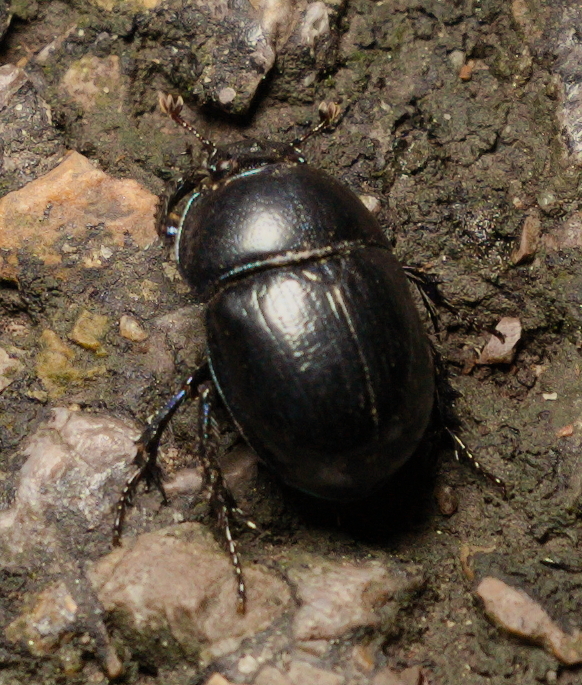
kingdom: Animalia
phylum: Arthropoda
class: Insecta
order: Coleoptera
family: Geotrupidae
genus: Anoplotrupes
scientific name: Anoplotrupes stercorosus
